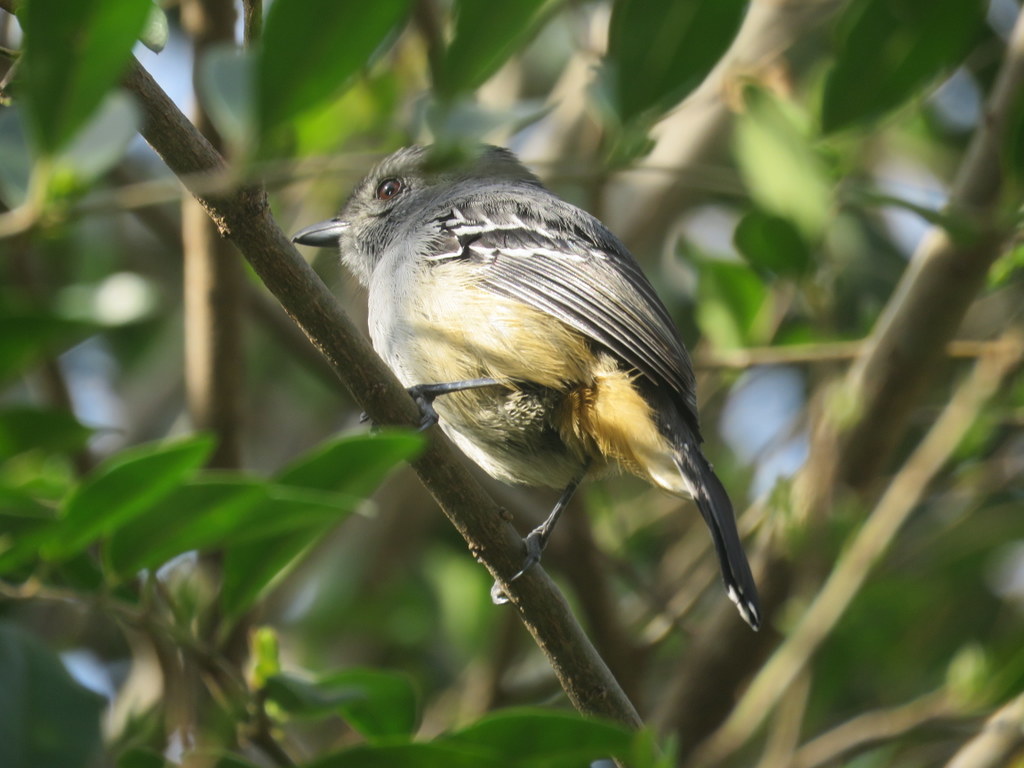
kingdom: Animalia
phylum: Chordata
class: Aves
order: Passeriformes
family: Thamnophilidae
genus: Thamnophilus
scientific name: Thamnophilus caerulescens
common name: Variable antshrike
